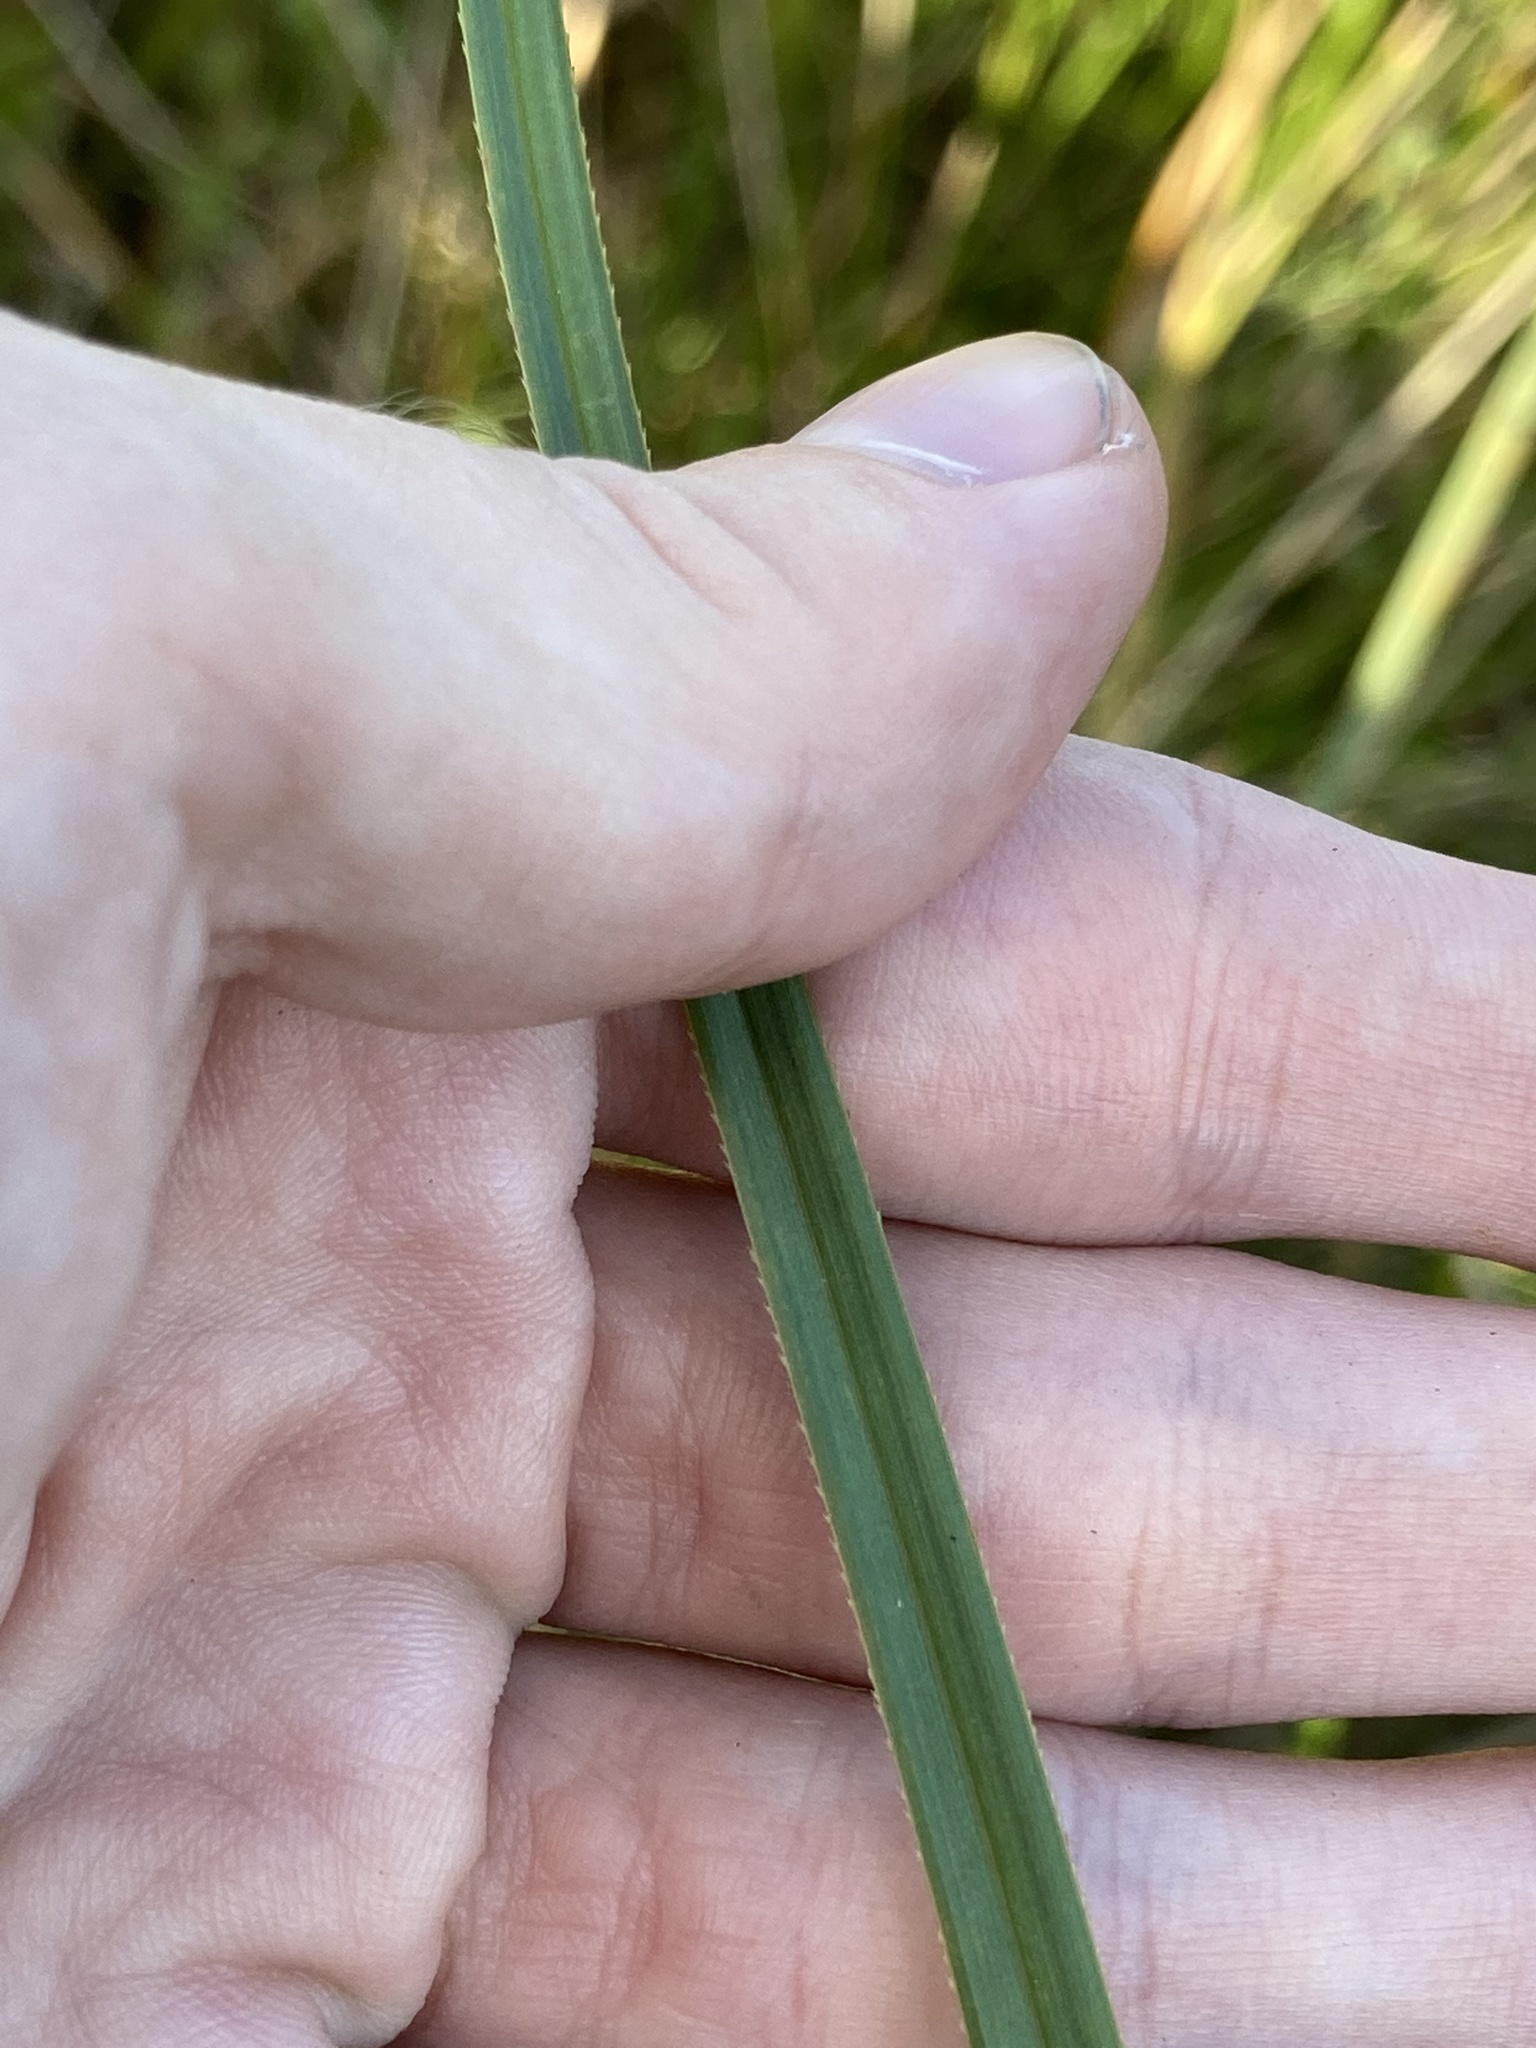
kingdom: Plantae
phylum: Tracheophyta
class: Liliopsida
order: Poales
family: Cyperaceae
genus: Cladium
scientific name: Cladium mariscus
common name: Great fen-sedge
